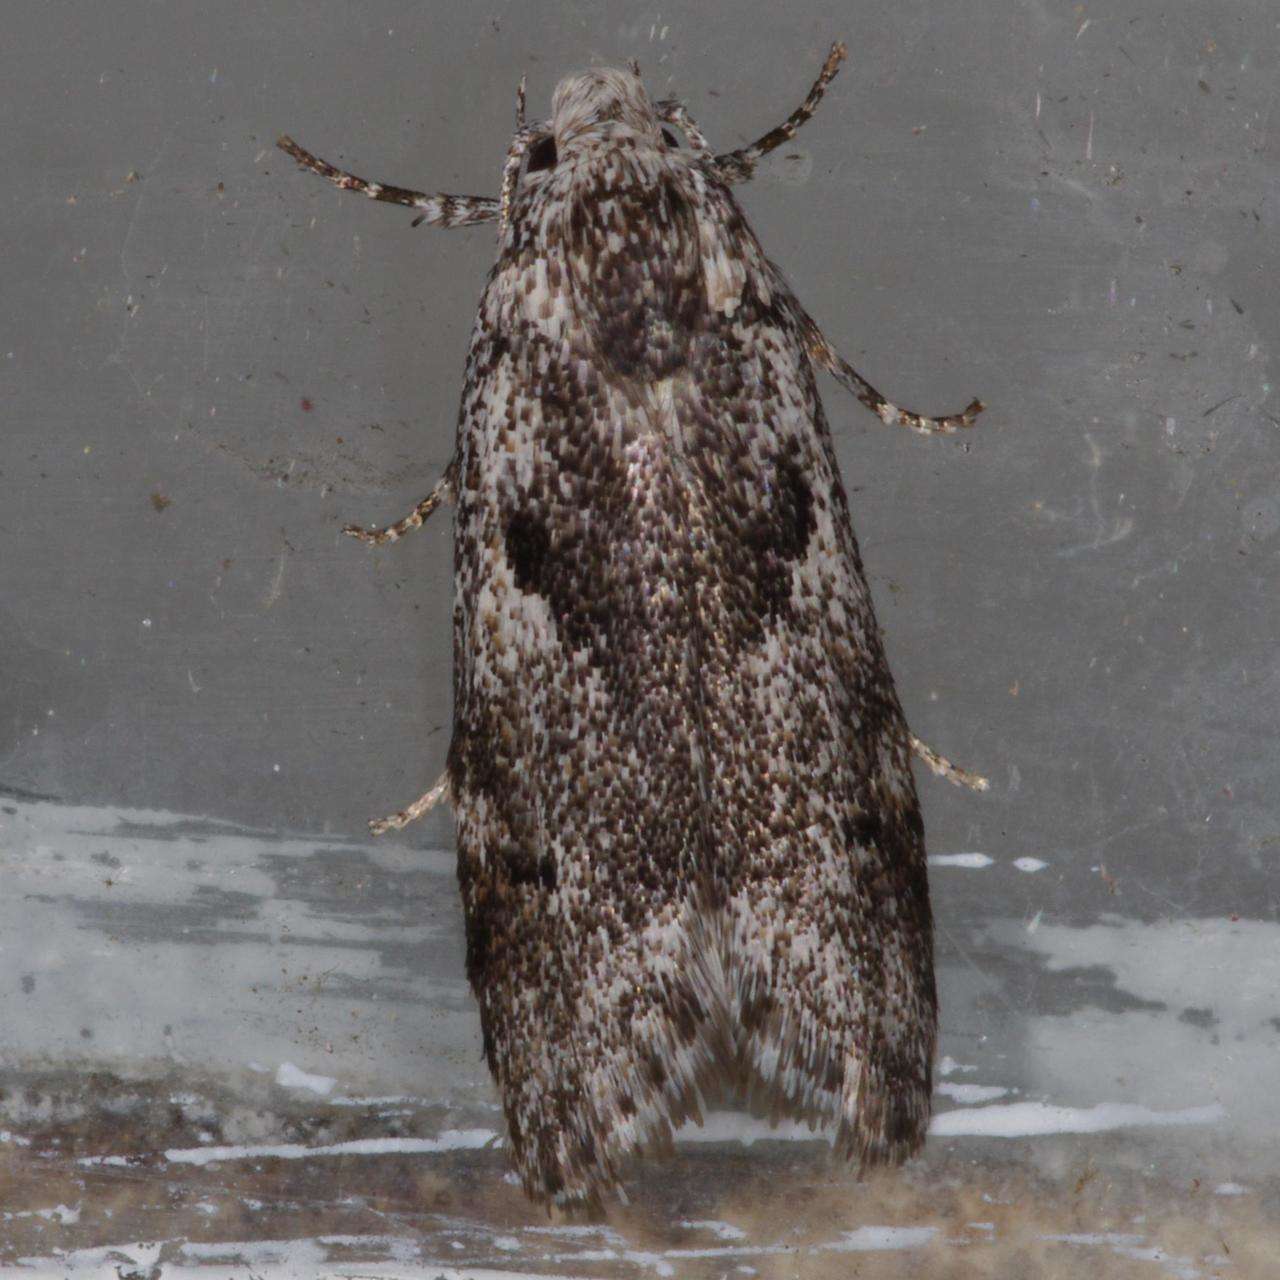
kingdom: Animalia
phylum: Arthropoda
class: Insecta
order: Lepidoptera
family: Xyloryctidae
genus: Lichenaula
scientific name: Lichenaula choriodes
